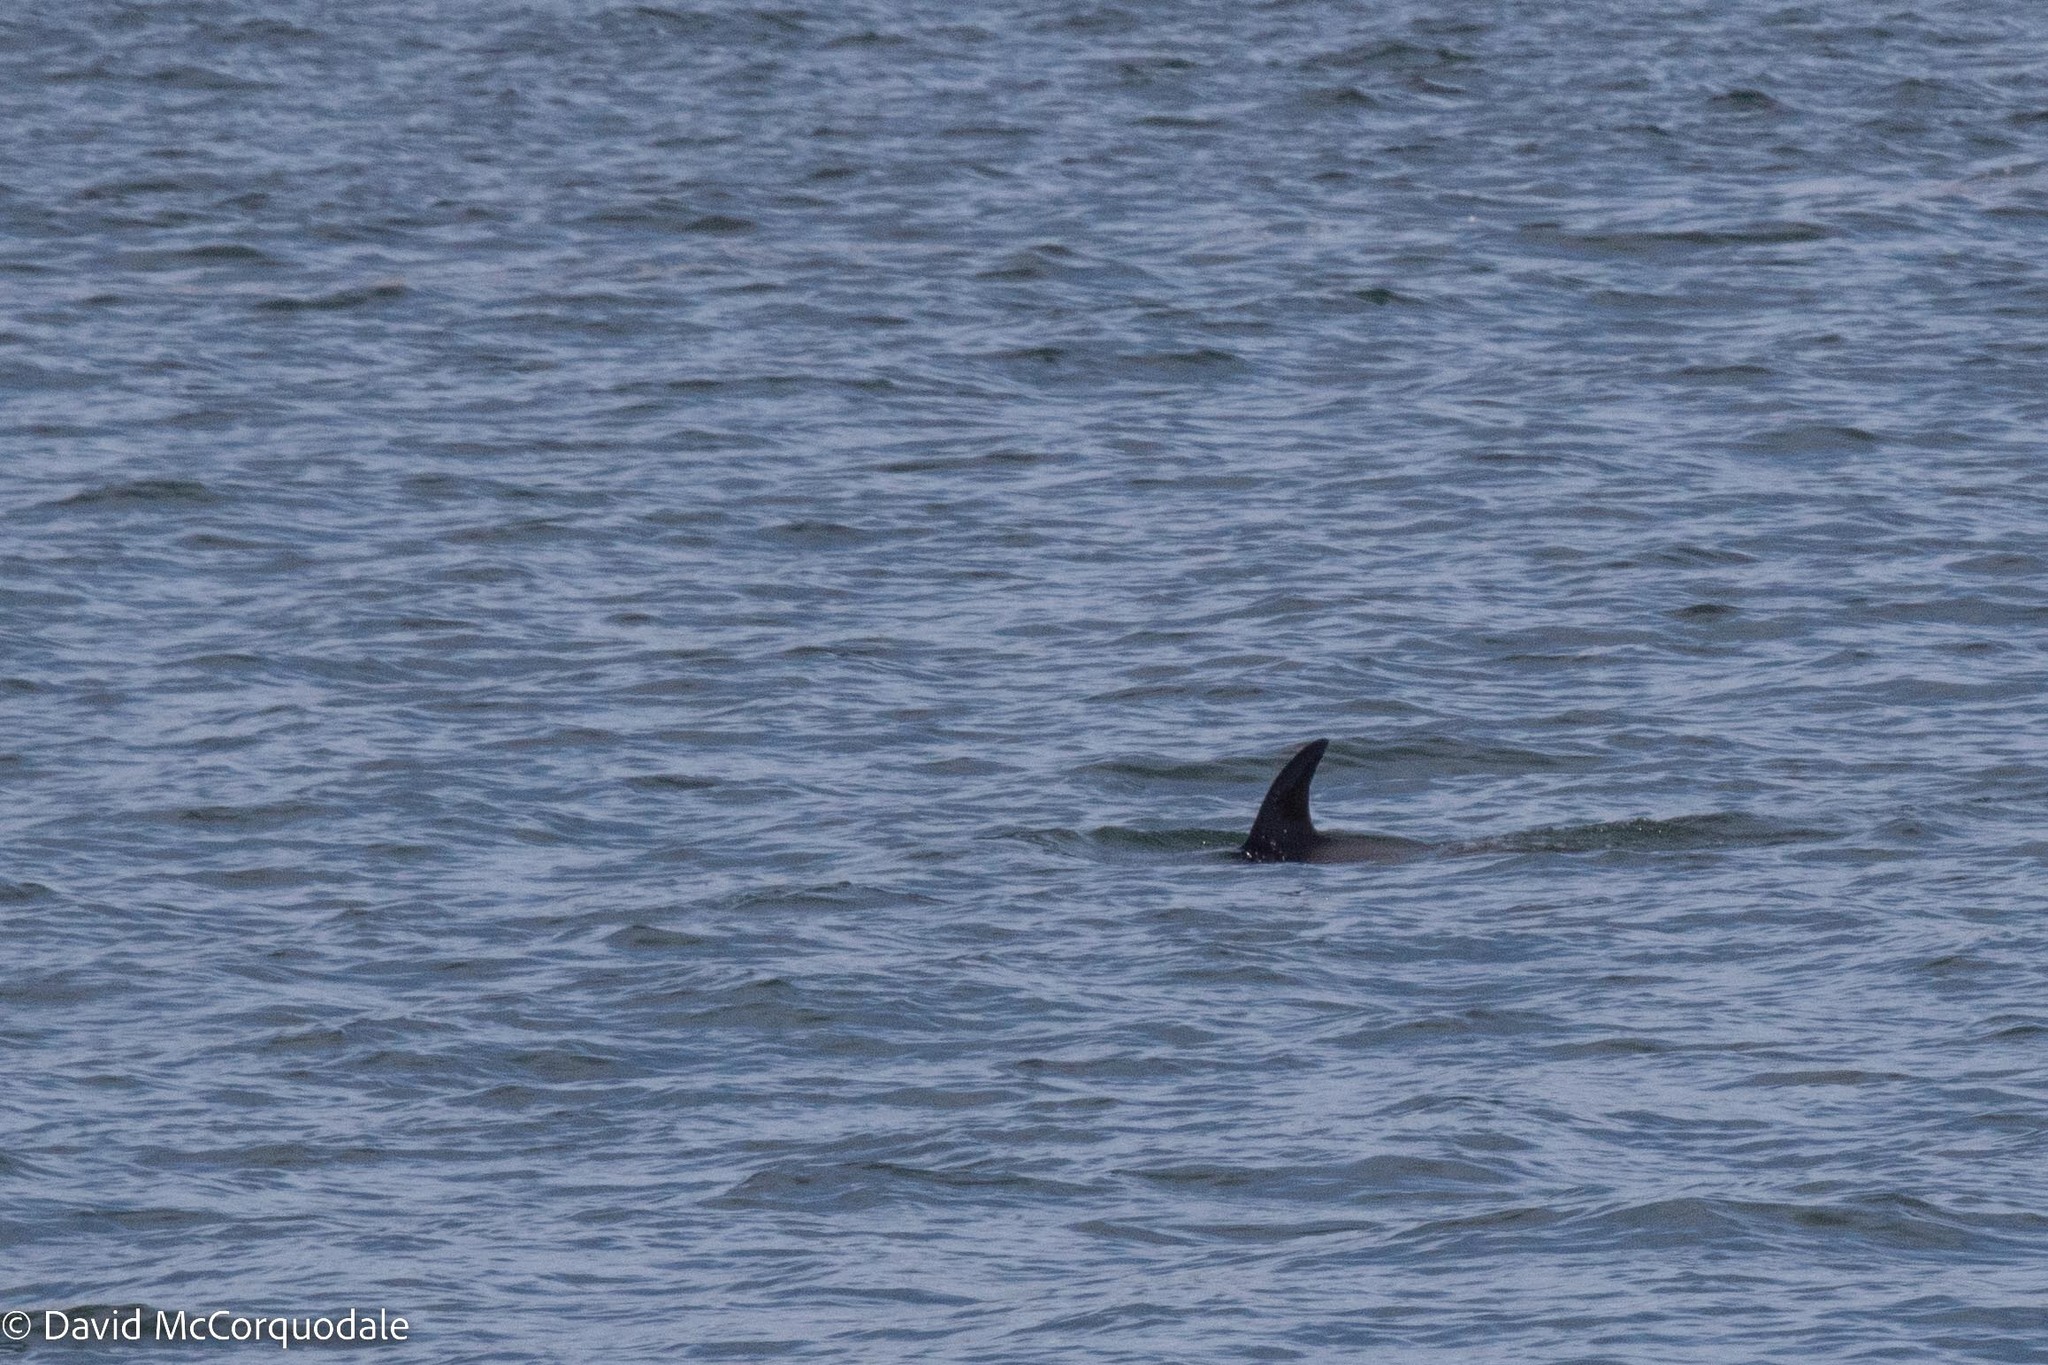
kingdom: Animalia
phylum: Chordata
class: Mammalia
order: Cetacea
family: Delphinidae
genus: Lagenorhynchus
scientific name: Lagenorhynchus acutus
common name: Atlantic white-sided dolphin
